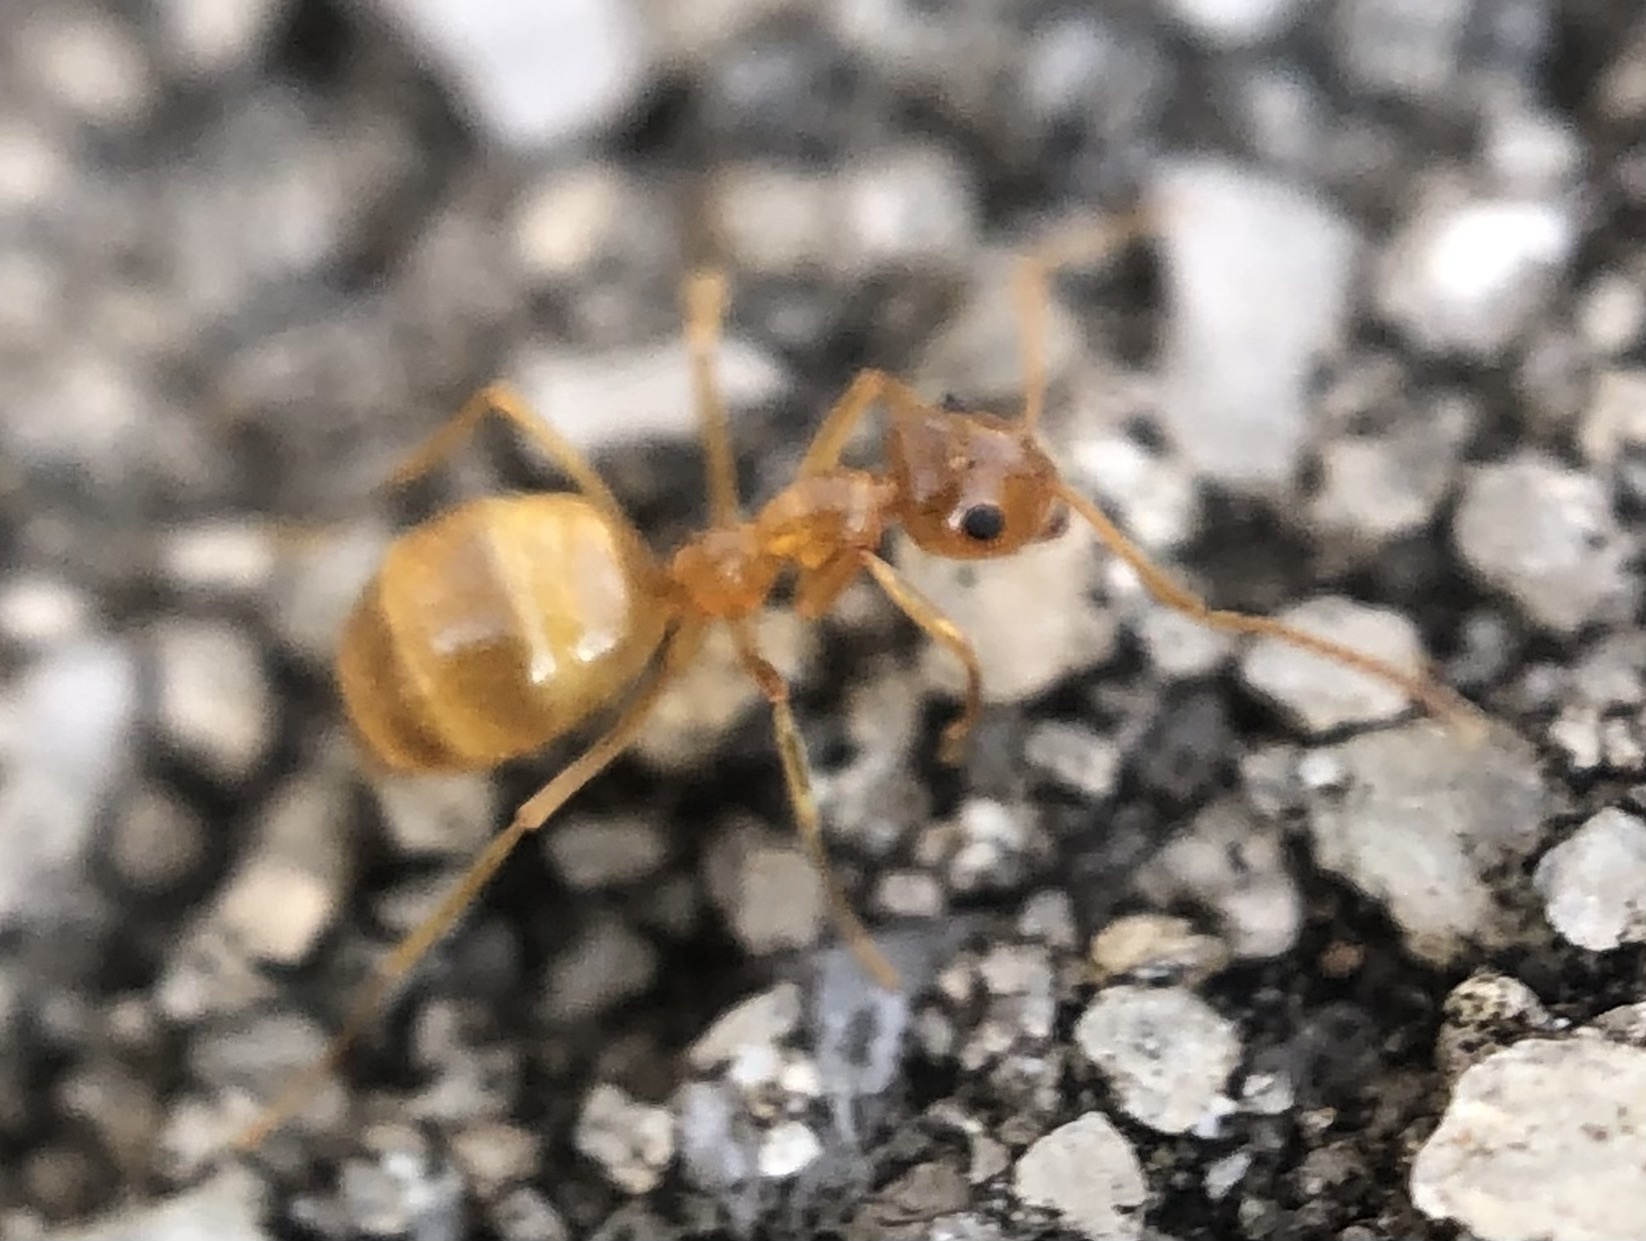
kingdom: Animalia
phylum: Arthropoda
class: Insecta
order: Hymenoptera
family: Formicidae
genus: Prenolepis
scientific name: Prenolepis imparis
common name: Small honey ant
